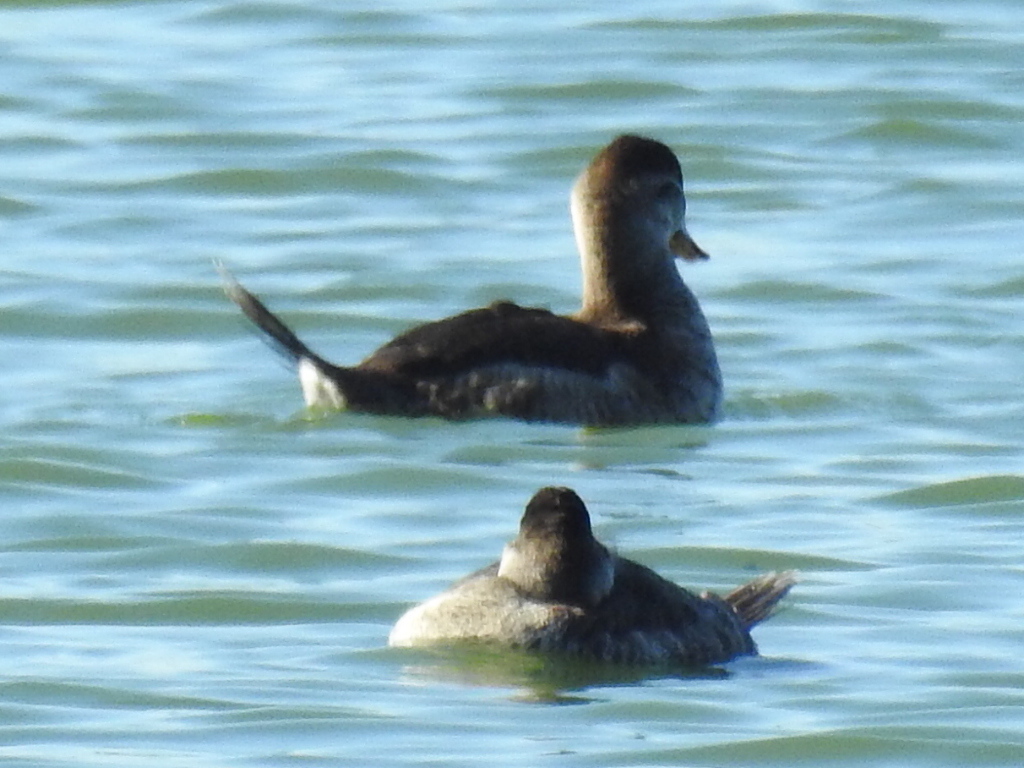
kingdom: Animalia
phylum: Chordata
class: Aves
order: Anseriformes
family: Anatidae
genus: Oxyura
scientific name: Oxyura jamaicensis
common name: Ruddy duck
